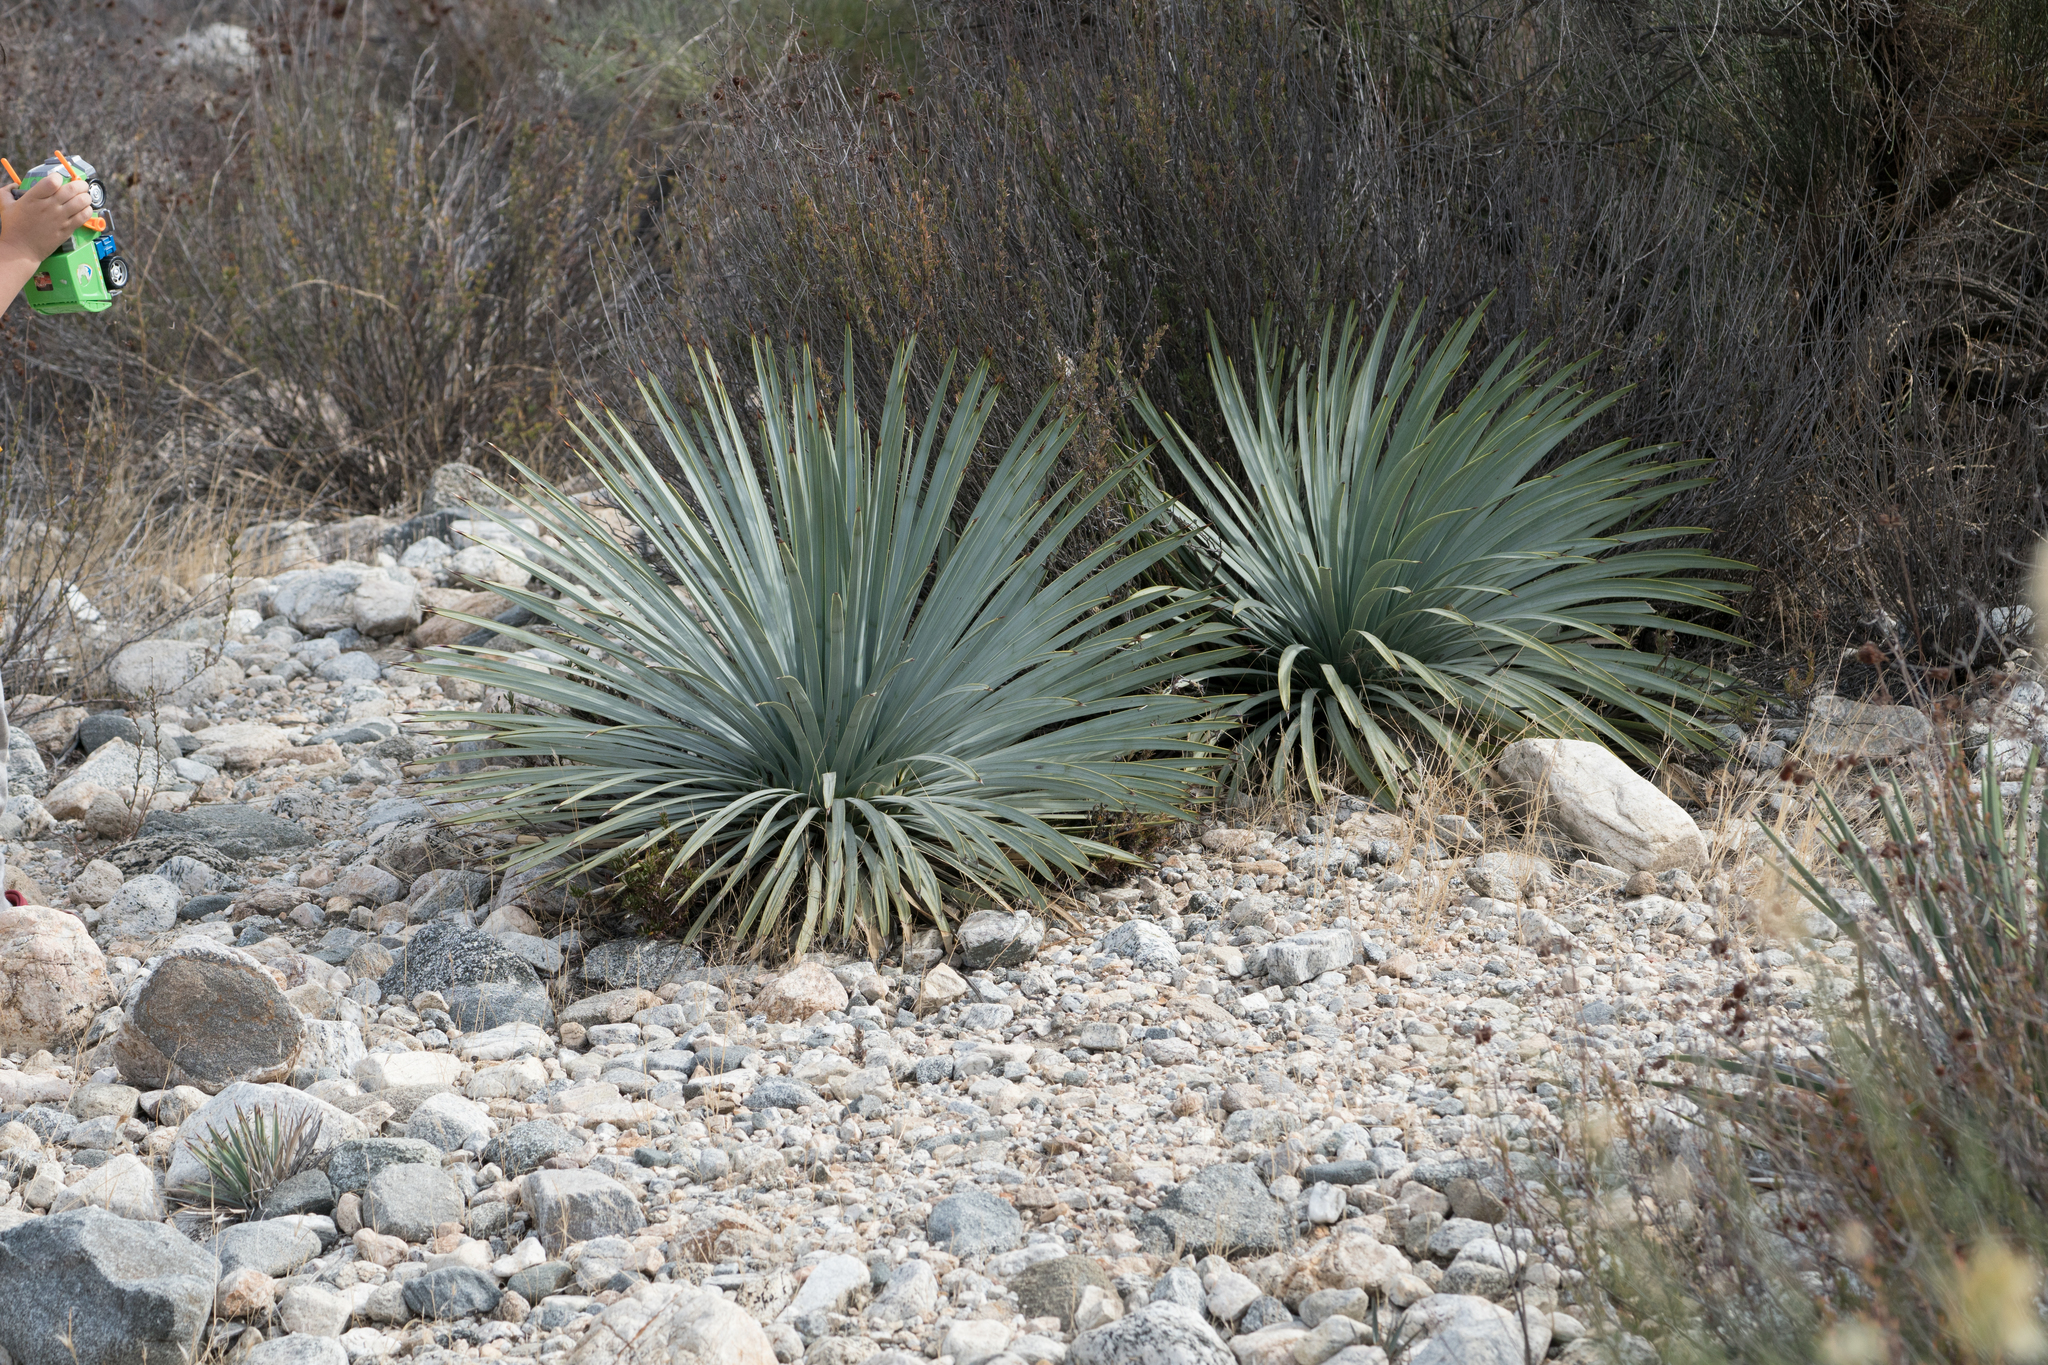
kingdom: Plantae
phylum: Tracheophyta
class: Liliopsida
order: Asparagales
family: Asparagaceae
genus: Hesperoyucca
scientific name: Hesperoyucca whipplei
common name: Our lord's-candle
